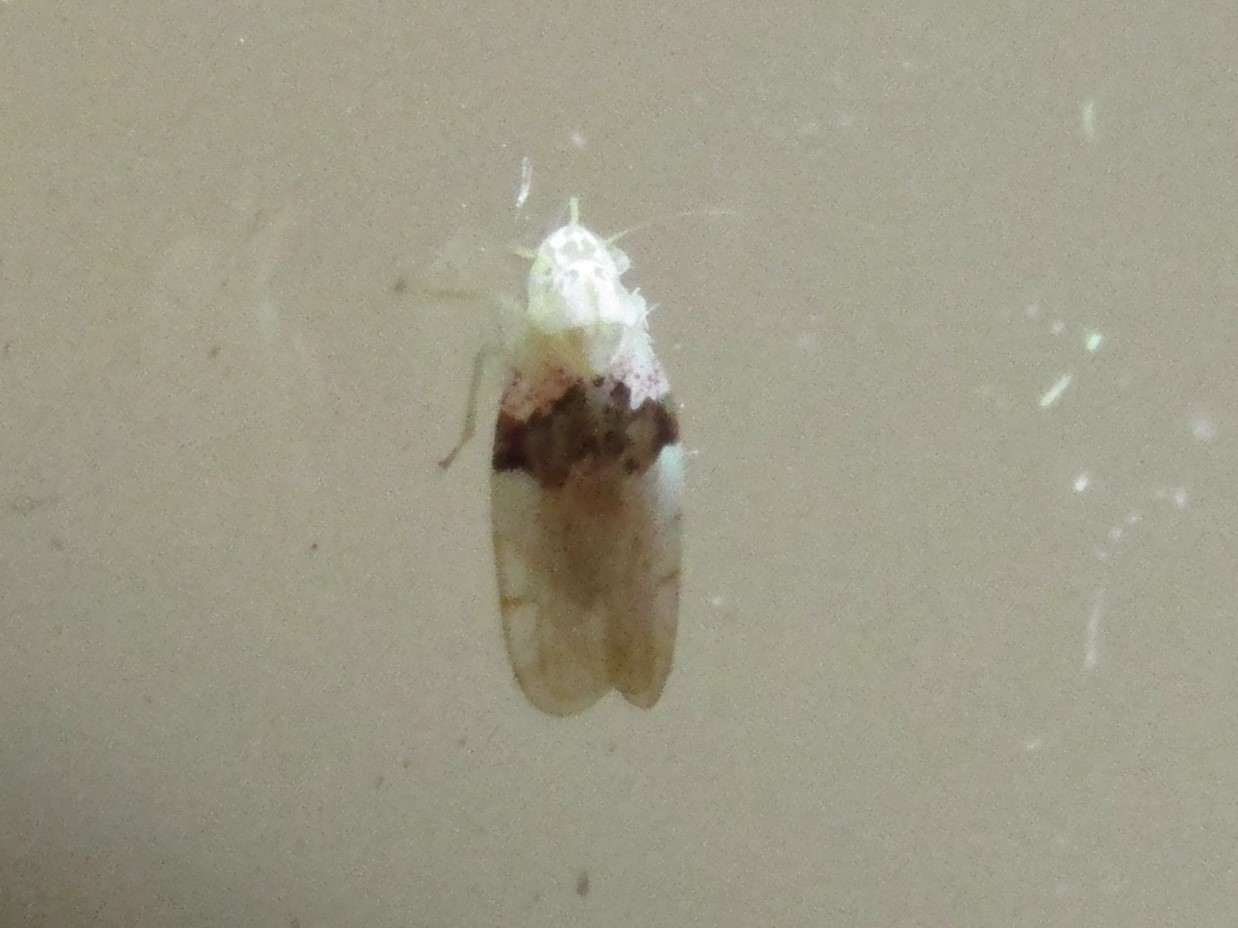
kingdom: Animalia
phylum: Arthropoda
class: Insecta
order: Hemiptera
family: Cicadellidae
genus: Hymetta
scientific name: Hymetta balteata
